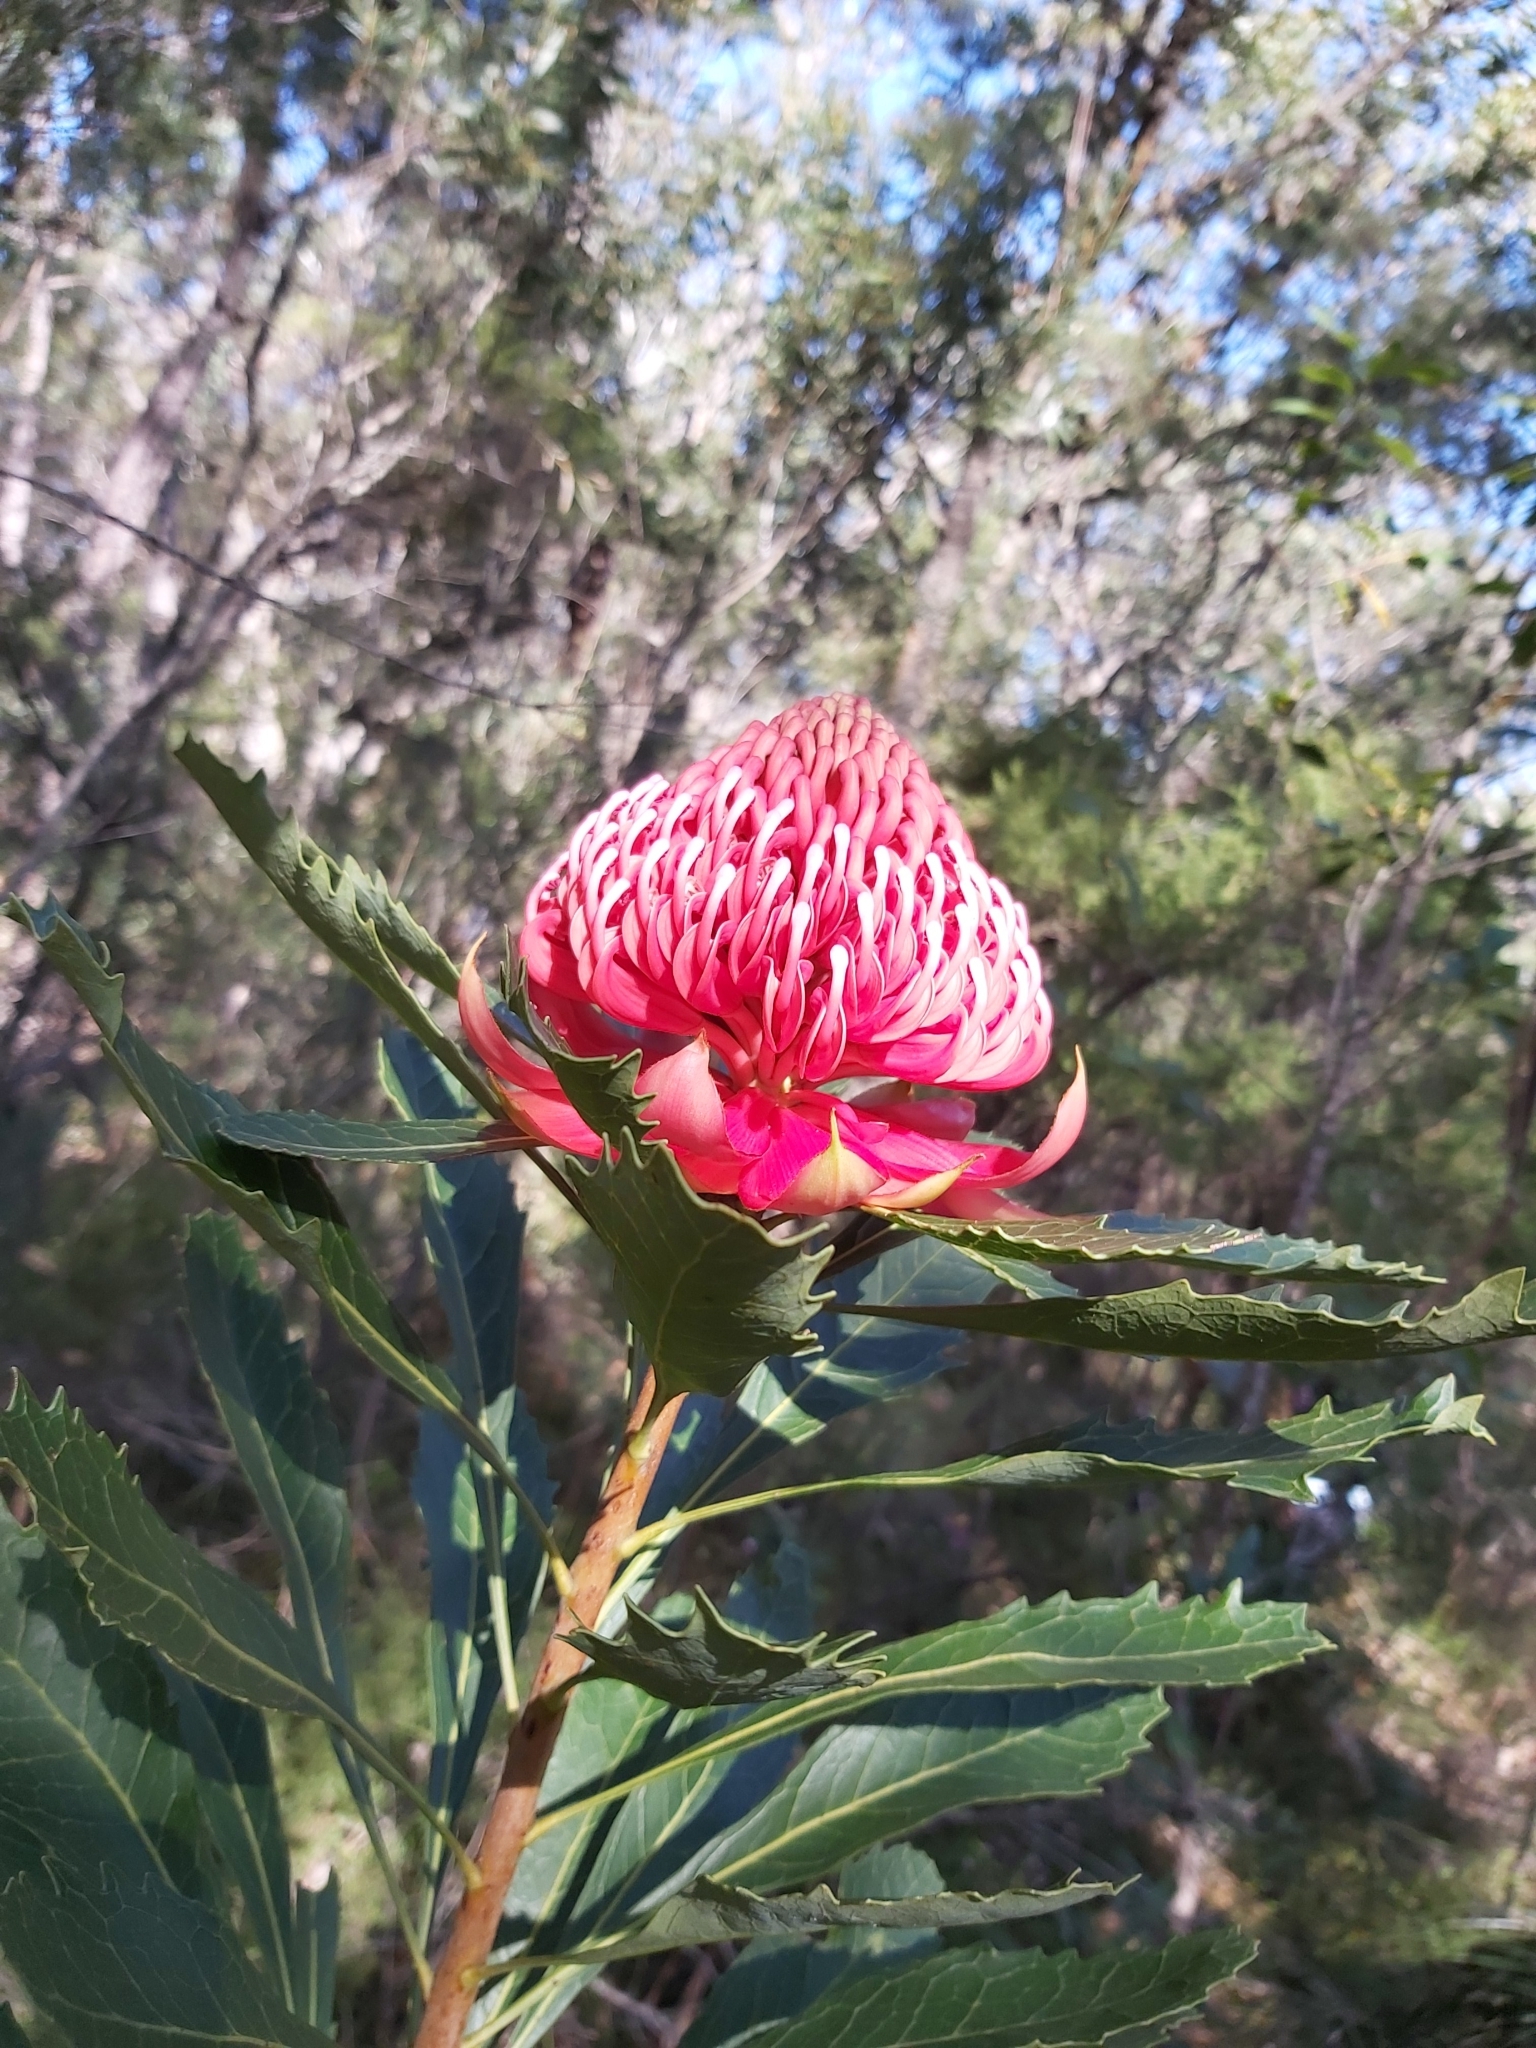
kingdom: Plantae
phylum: Tracheophyta
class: Magnoliopsida
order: Proteales
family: Proteaceae
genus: Telopea
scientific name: Telopea speciosissima
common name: New south wales waratah
